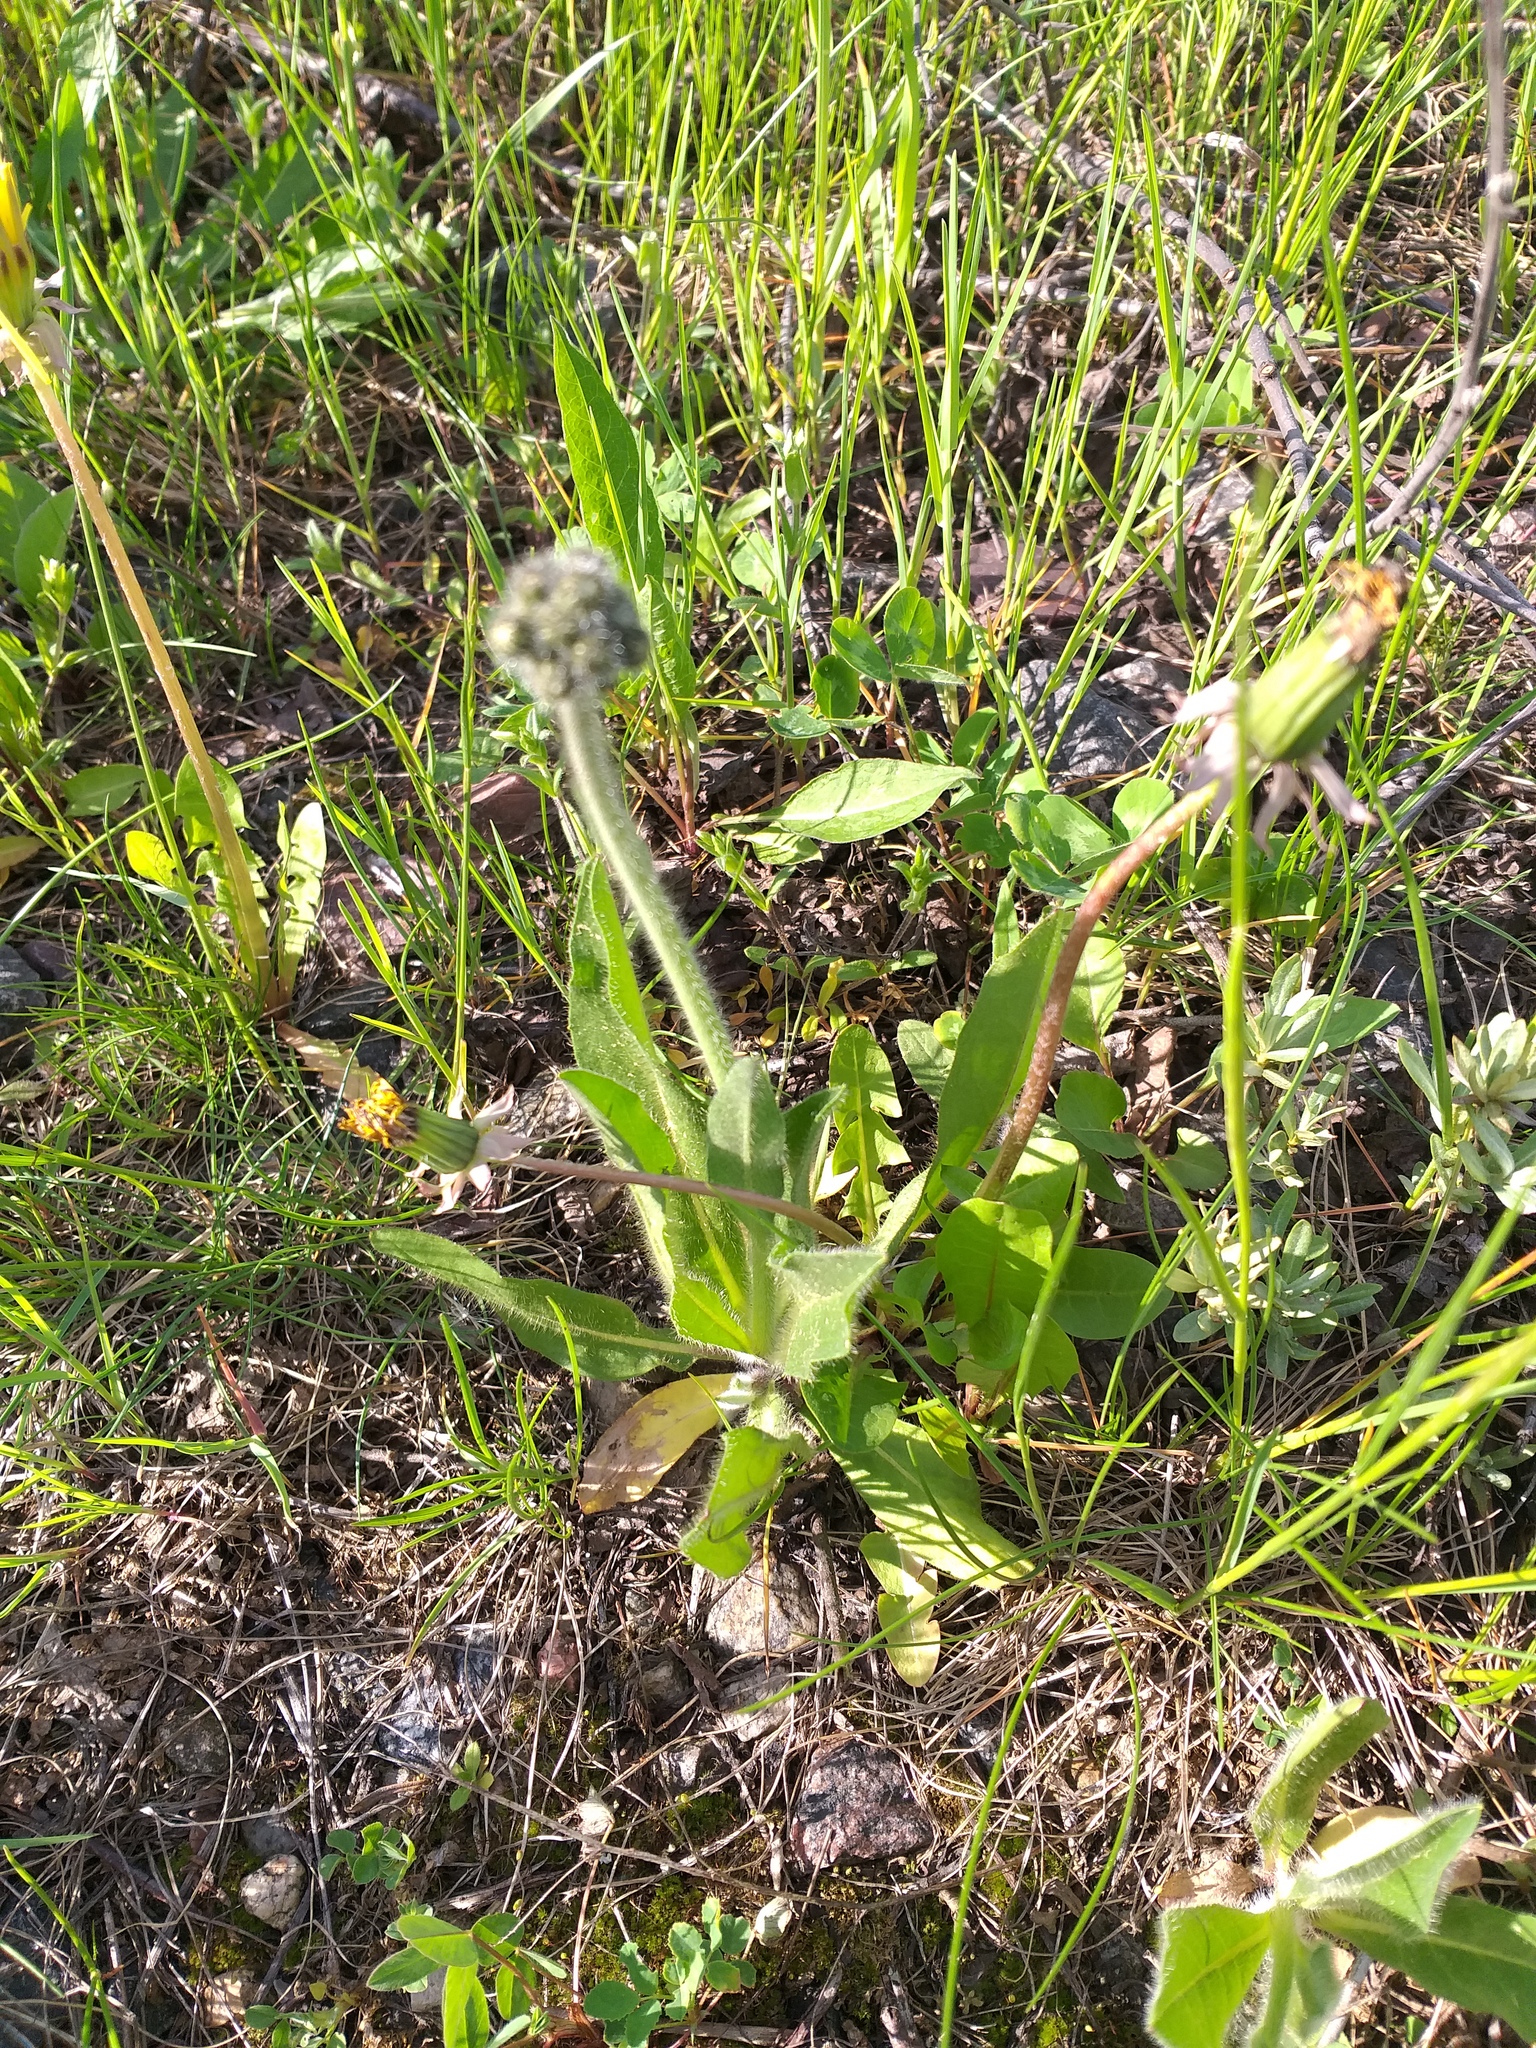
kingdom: Plantae
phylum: Tracheophyta
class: Magnoliopsida
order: Asterales
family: Asteraceae
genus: Pilosella
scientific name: Pilosella
